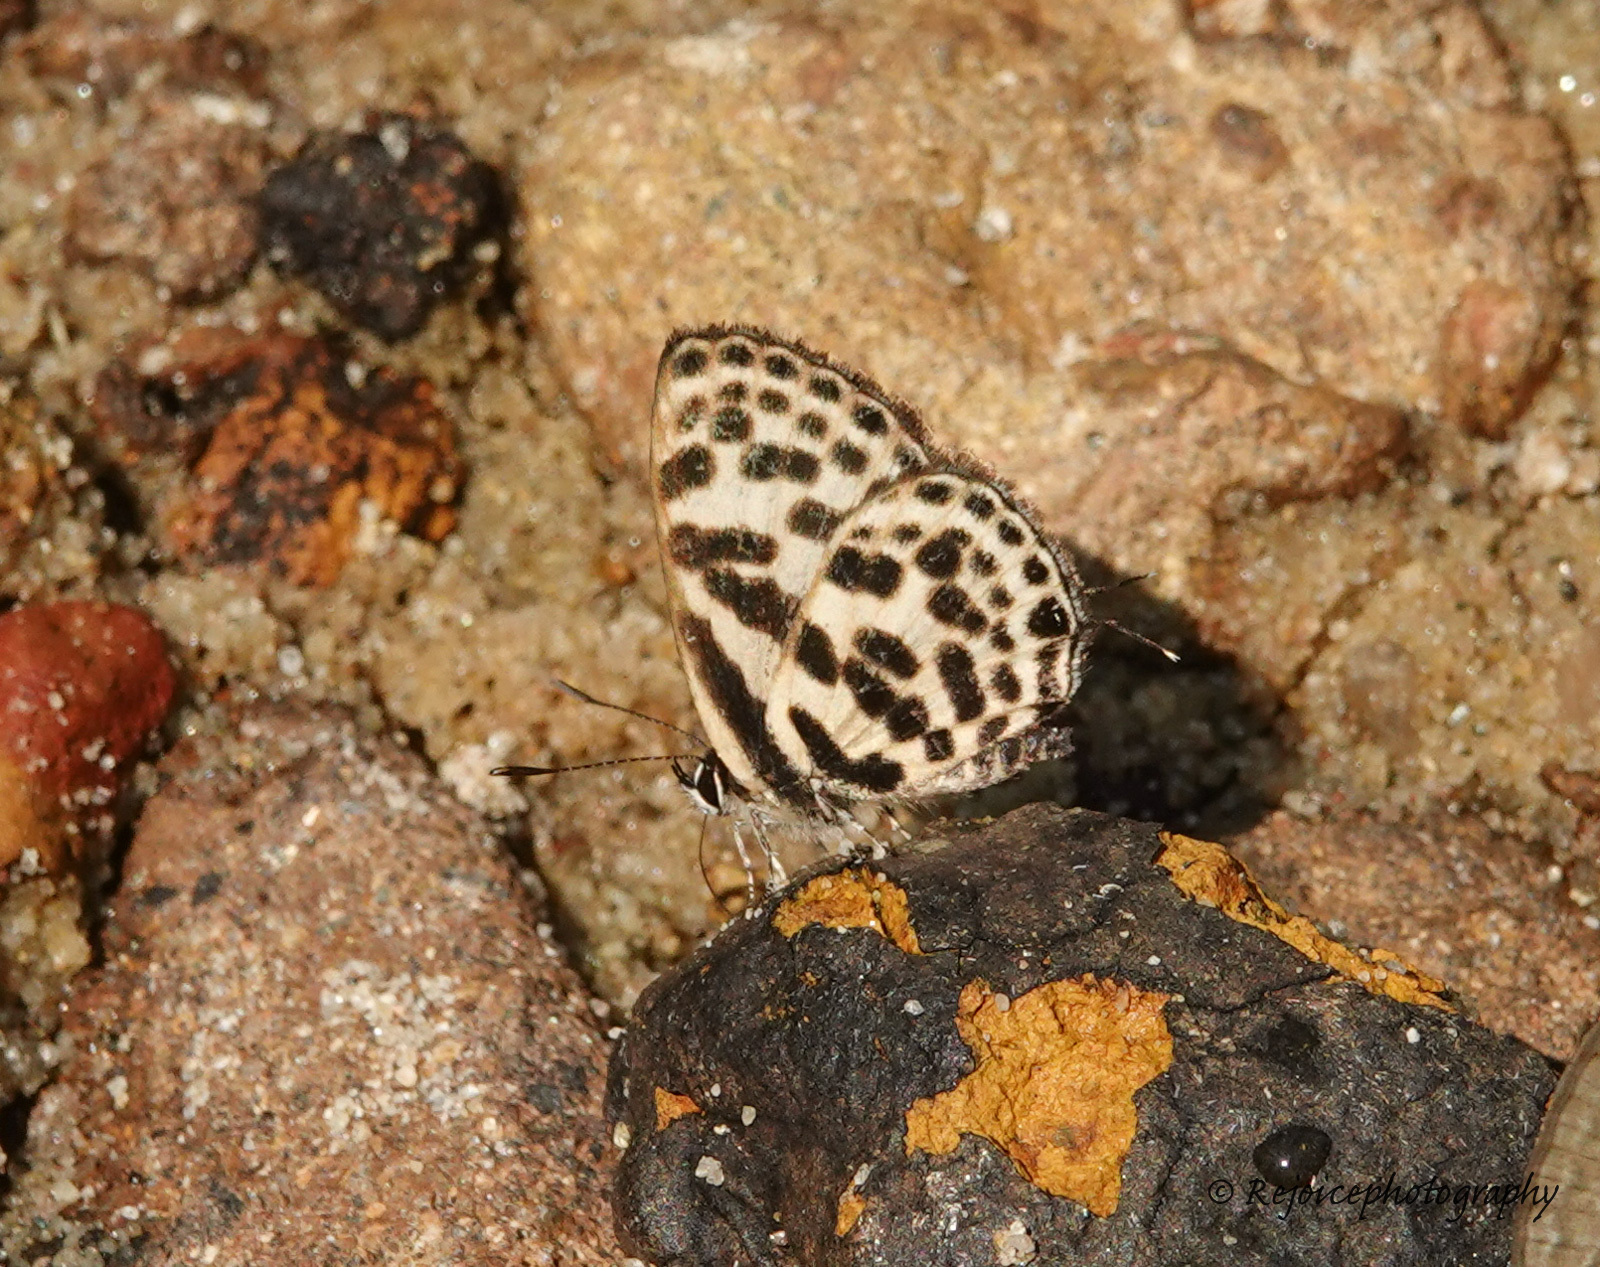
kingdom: Animalia
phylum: Arthropoda
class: Insecta
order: Lepidoptera
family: Lycaenidae
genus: Tarucus
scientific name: Tarucus
